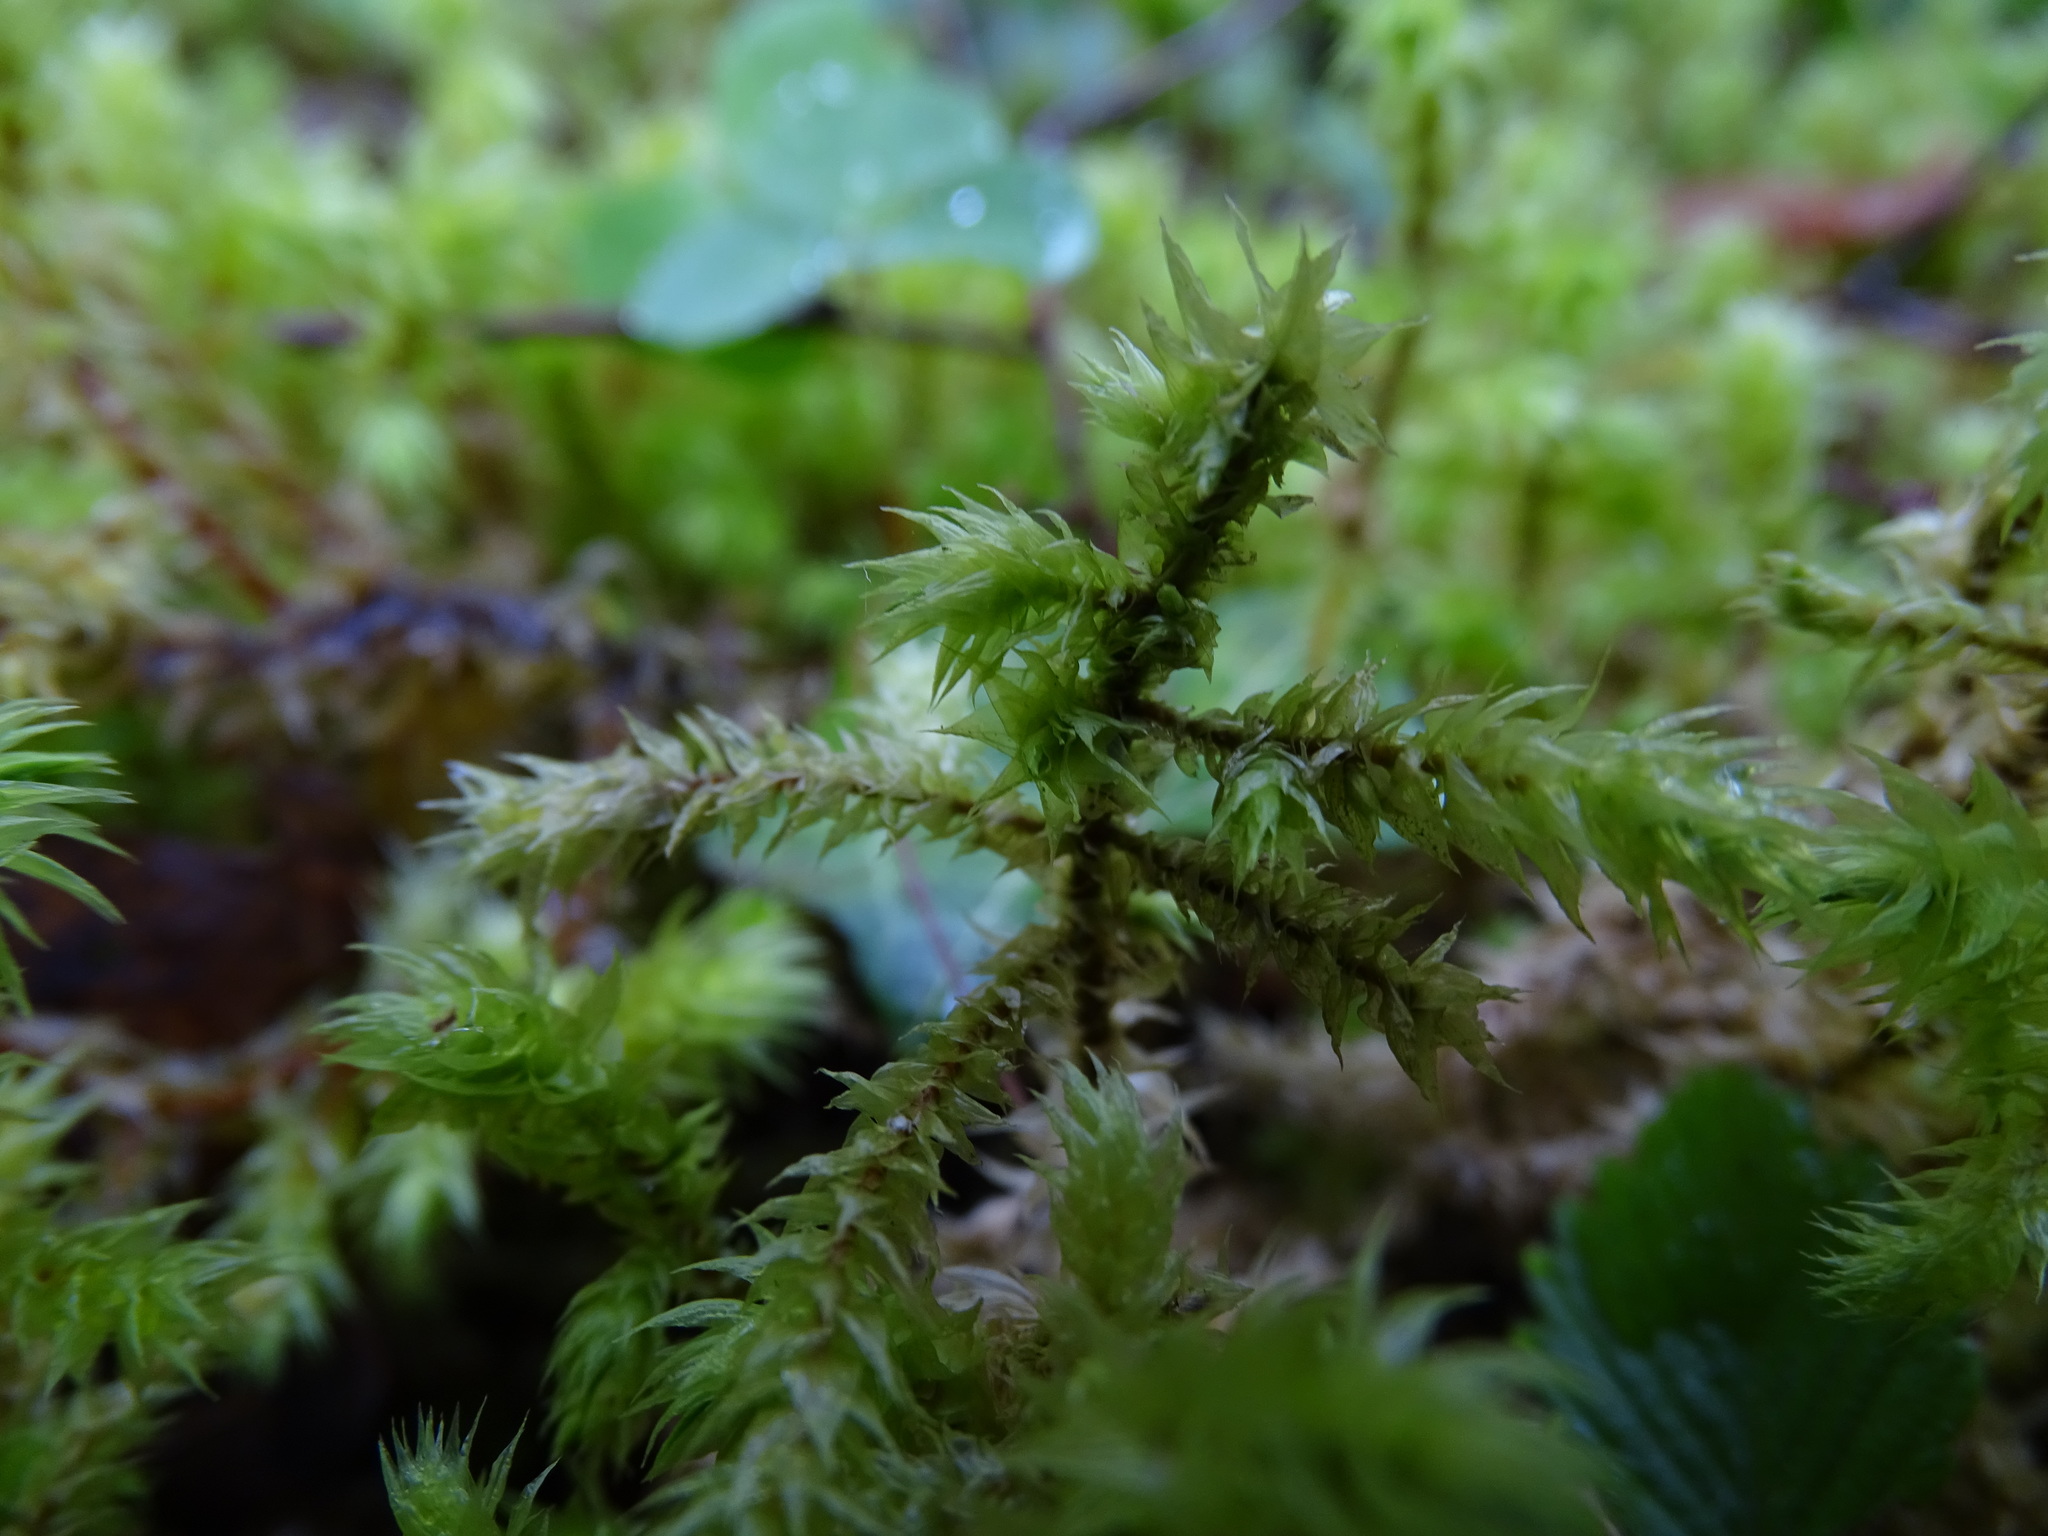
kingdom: Plantae
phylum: Bryophyta
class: Bryopsida
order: Hypnales
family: Hylocomiaceae
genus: Hylocomiadelphus
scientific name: Hylocomiadelphus triquetrus
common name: Rough goose neck moss
